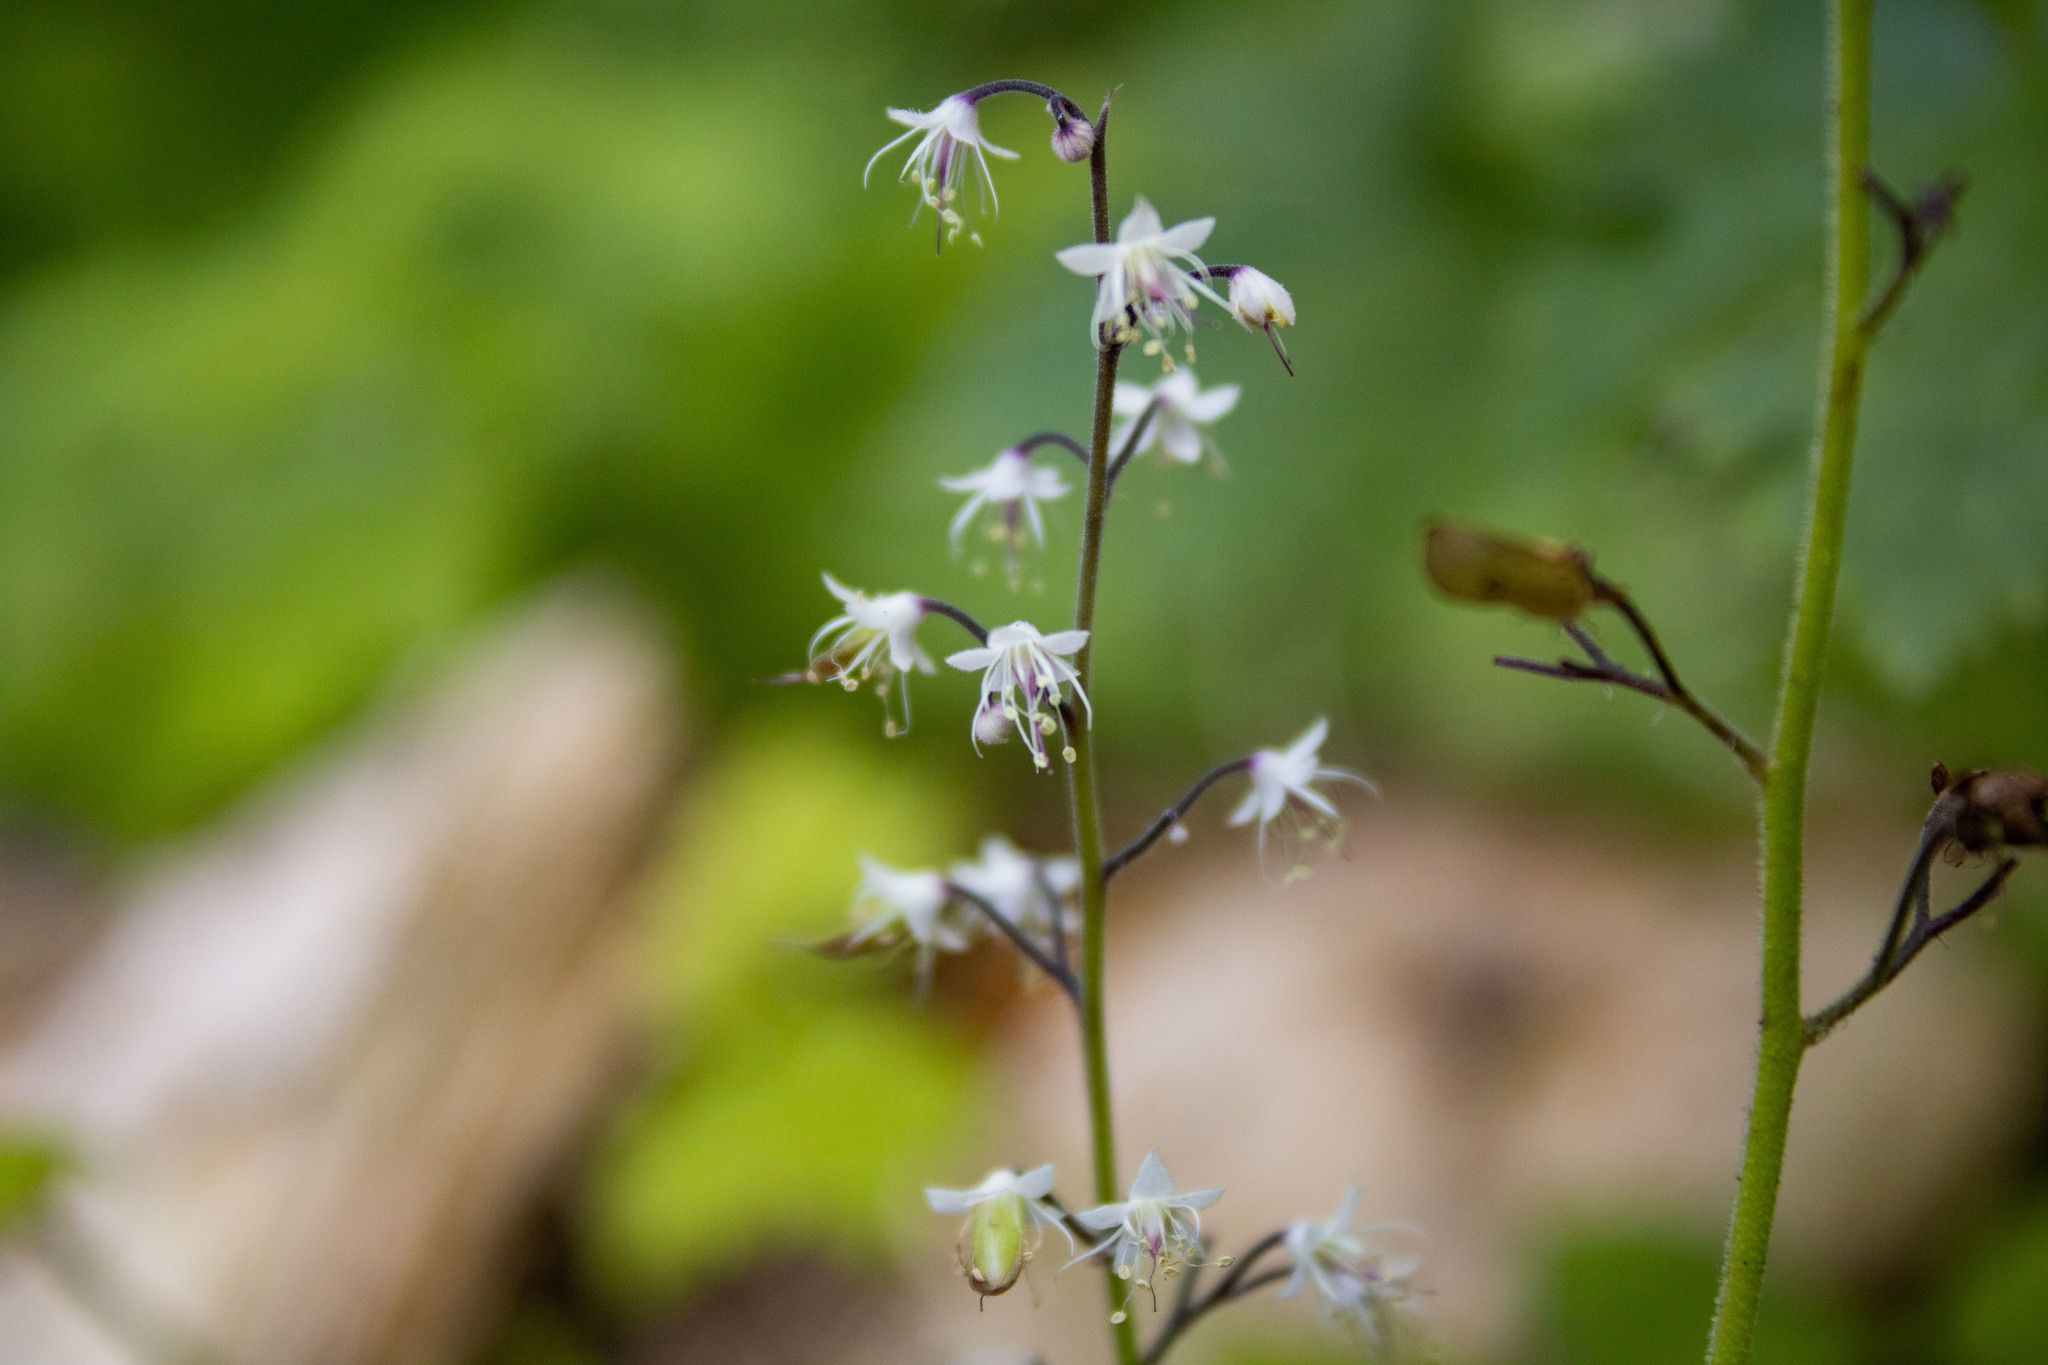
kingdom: Plantae
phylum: Tracheophyta
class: Magnoliopsida
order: Saxifragales
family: Saxifragaceae
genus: Tiarella
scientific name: Tiarella trifoliata
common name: Sugar-scoop
